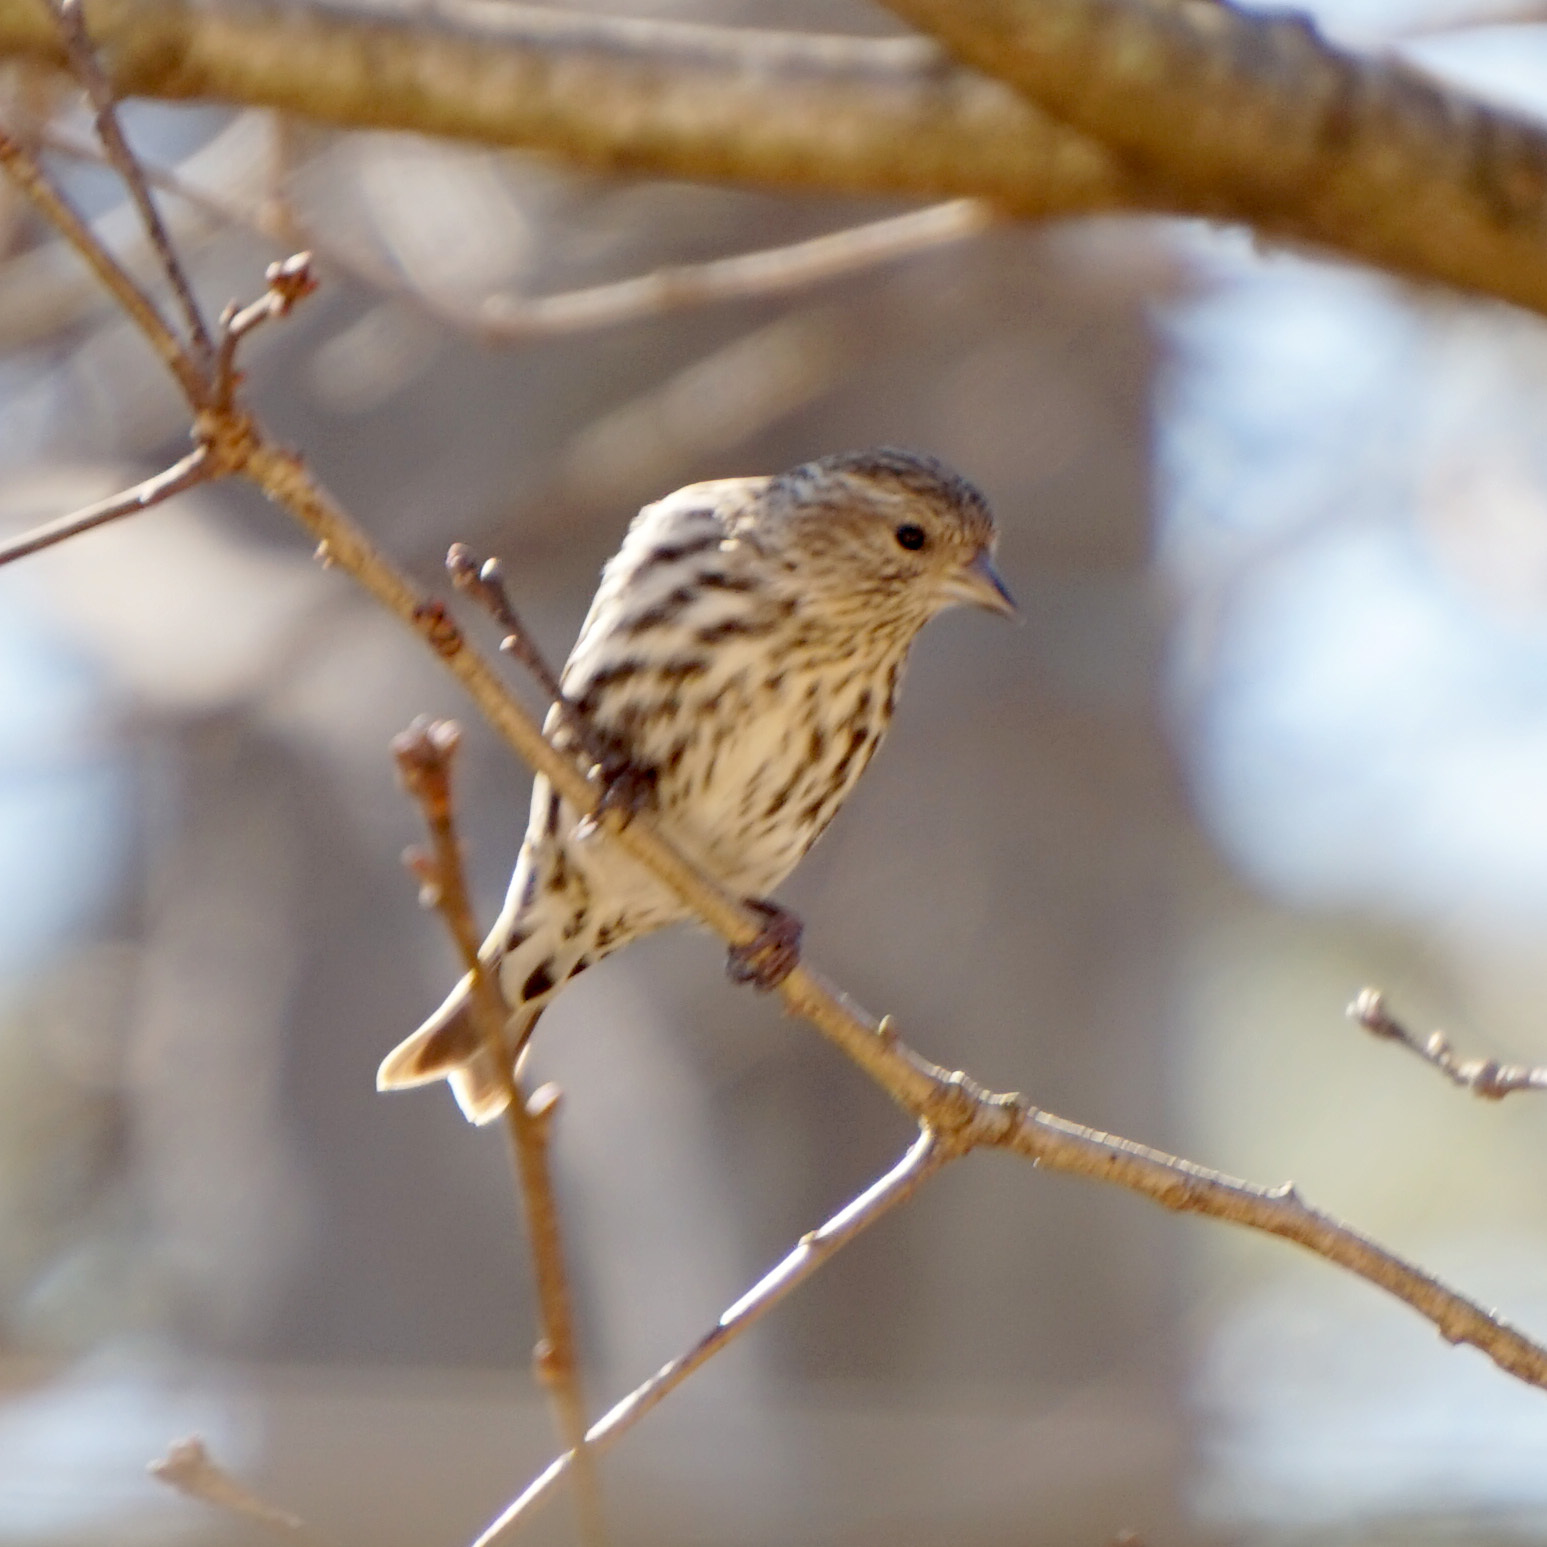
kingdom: Animalia
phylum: Chordata
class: Aves
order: Passeriformes
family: Fringillidae
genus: Spinus
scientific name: Spinus pinus
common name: Pine siskin
